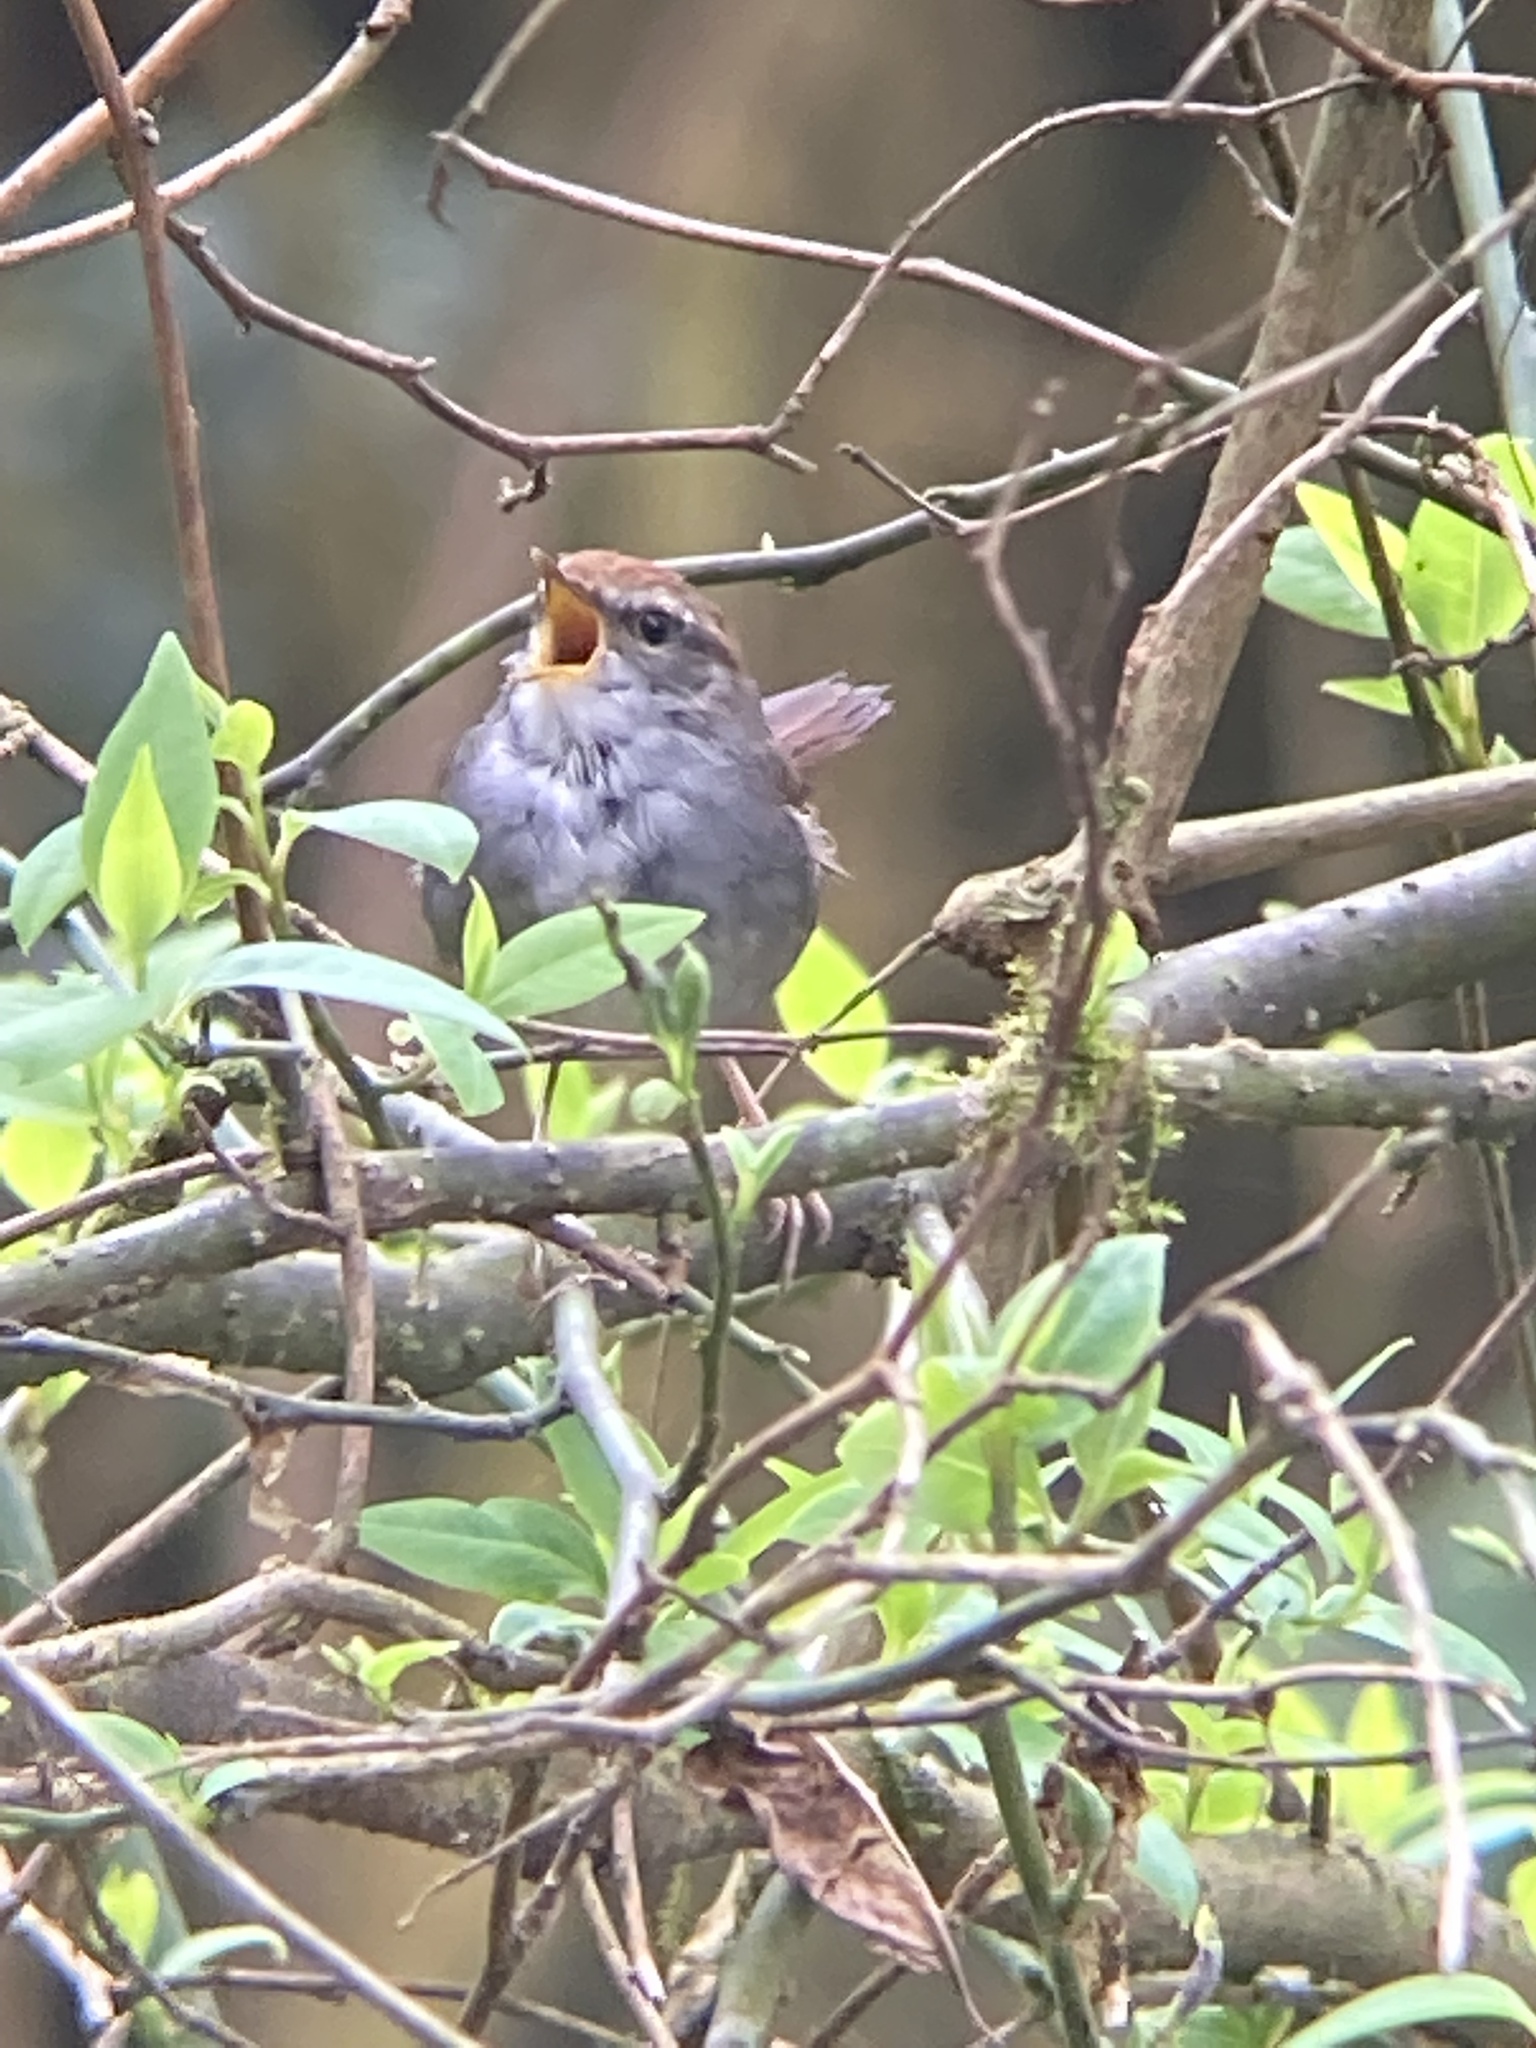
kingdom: Animalia
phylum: Chordata
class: Aves
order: Passeriformes
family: Cettiidae
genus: Cettia
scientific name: Cettia brunnifrons
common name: Grey-sided bush warbler
